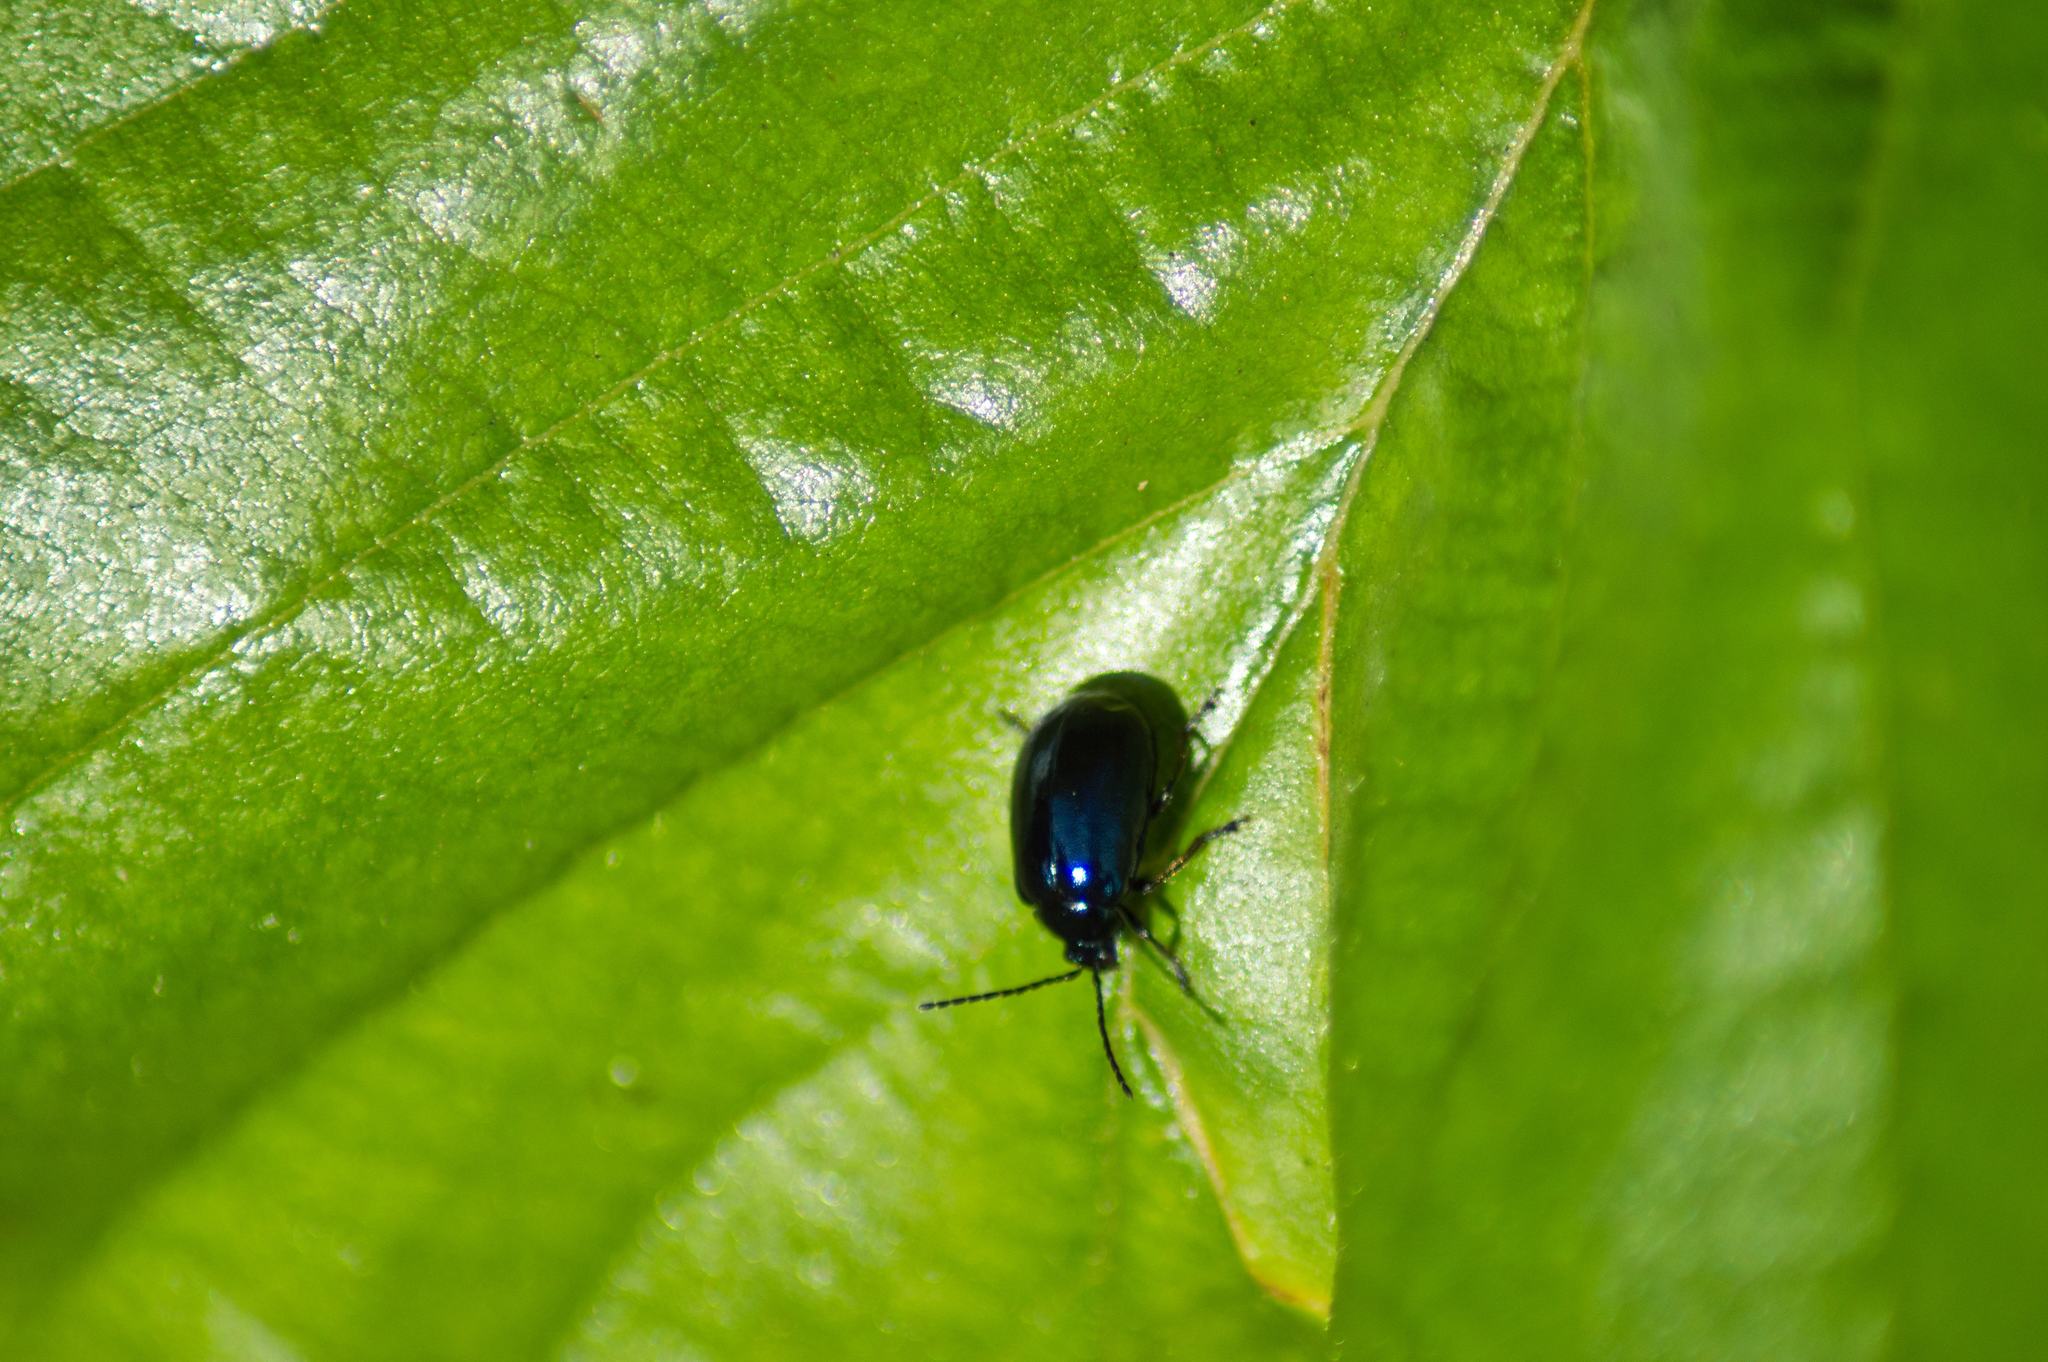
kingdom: Animalia
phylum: Arthropoda
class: Insecta
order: Coleoptera
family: Chrysomelidae
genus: Agelastica
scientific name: Agelastica alni
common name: Alder leaf beetle
